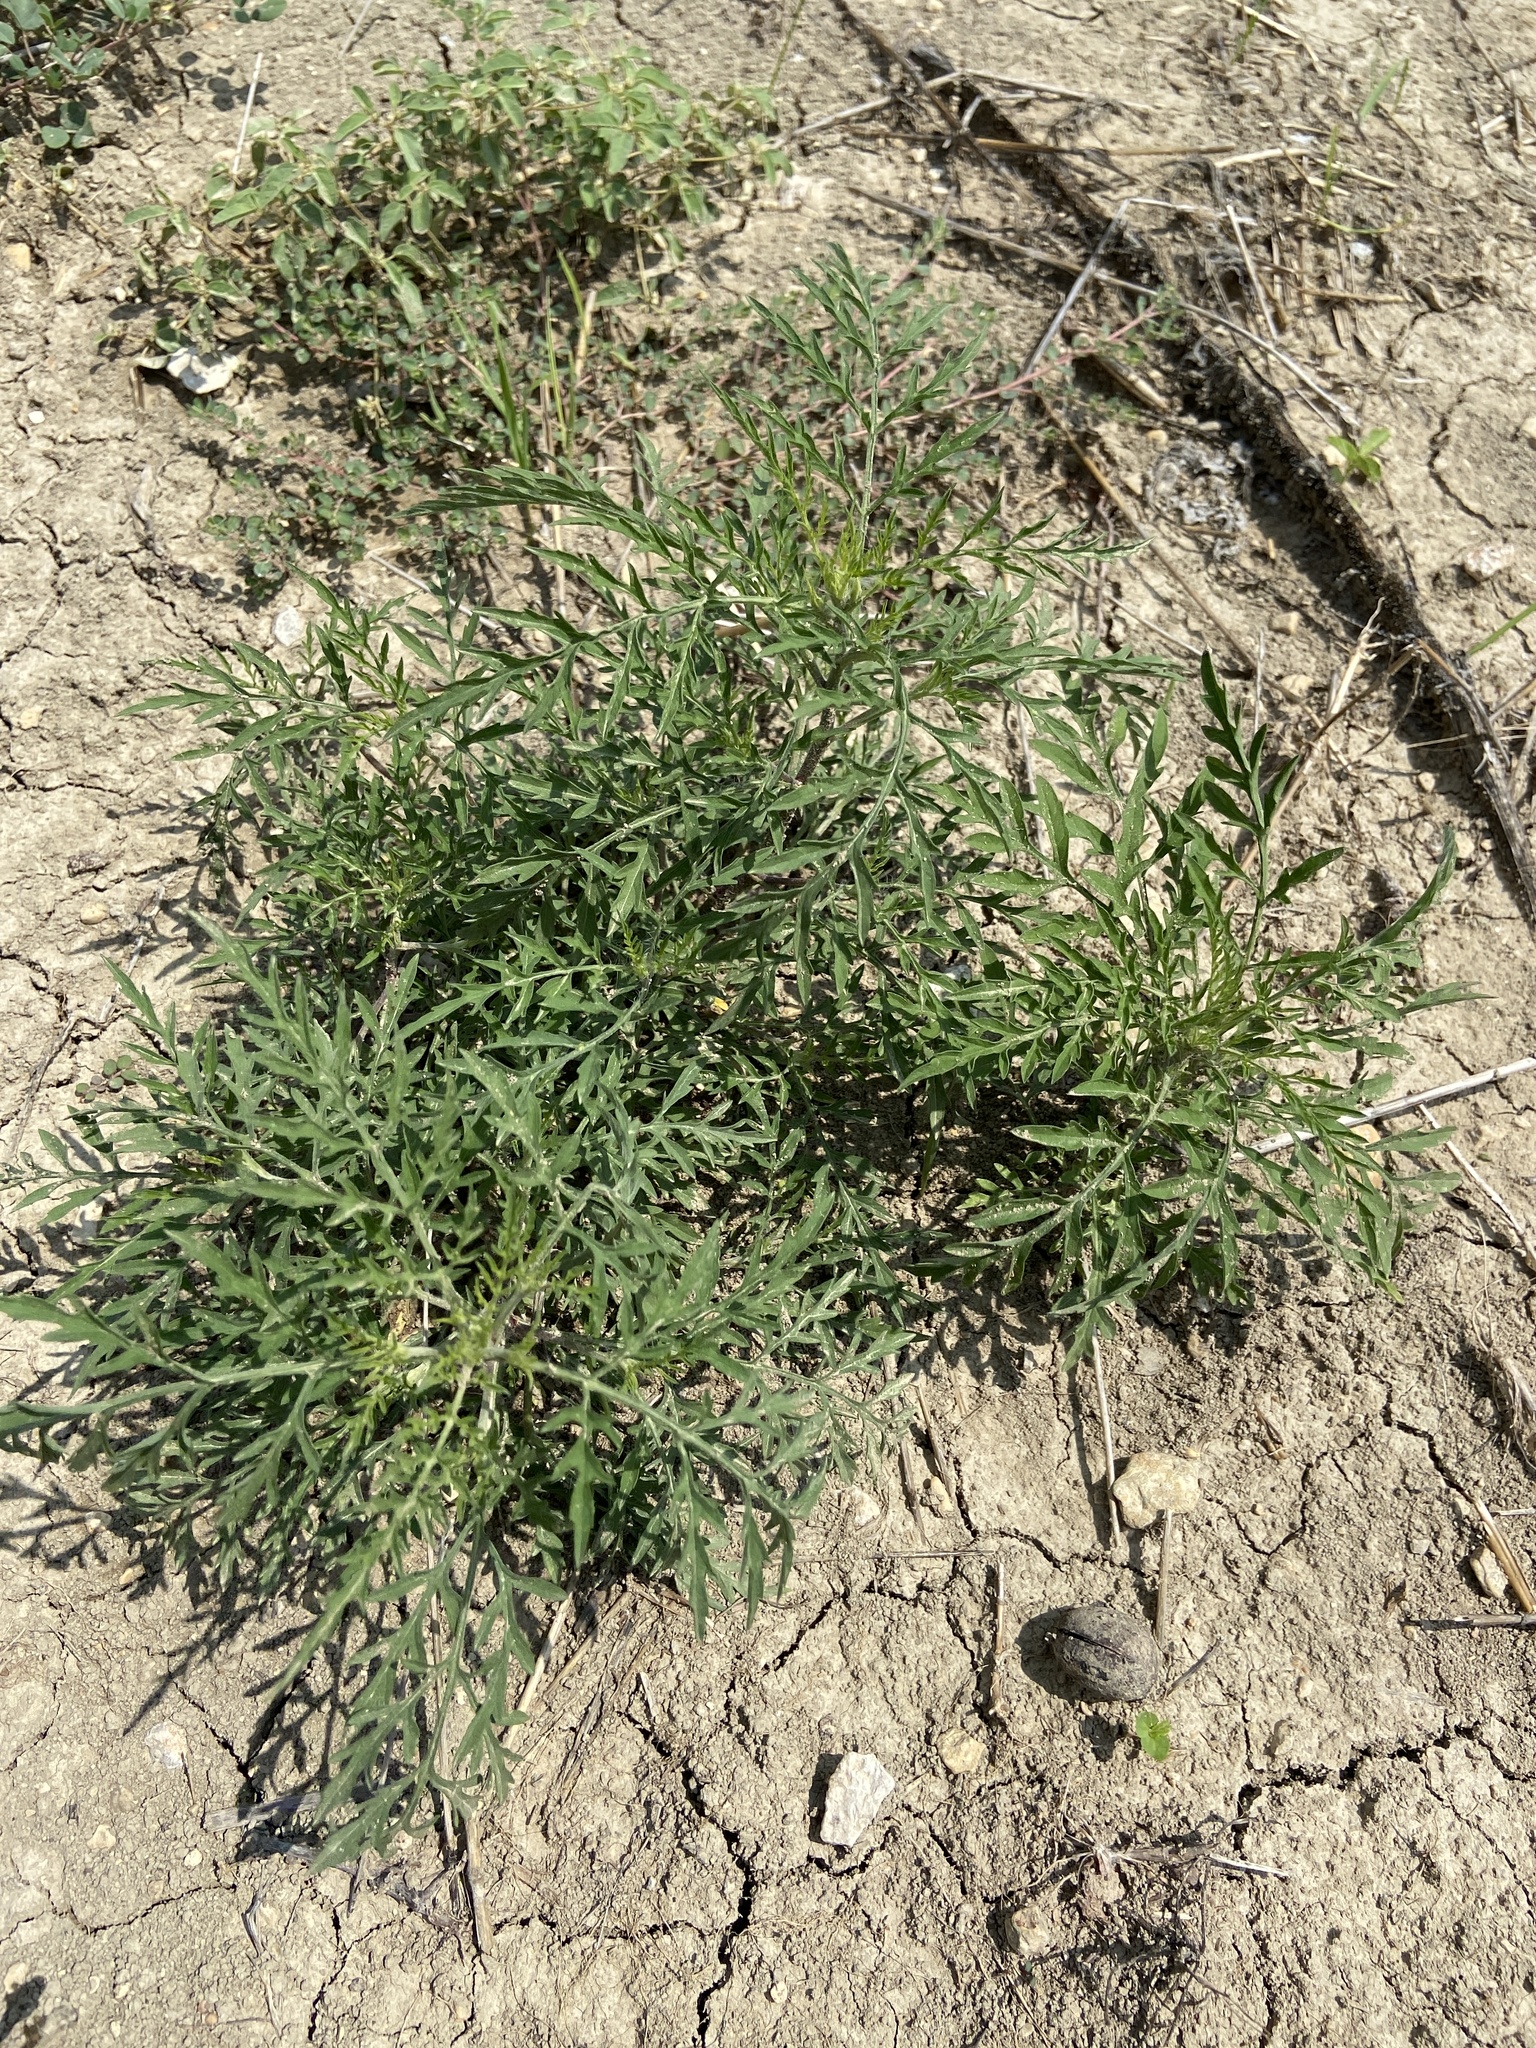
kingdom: Plantae
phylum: Tracheophyta
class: Magnoliopsida
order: Asterales
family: Asteraceae
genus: Ambrosia
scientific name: Ambrosia artemisiifolia
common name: Annual ragweed
